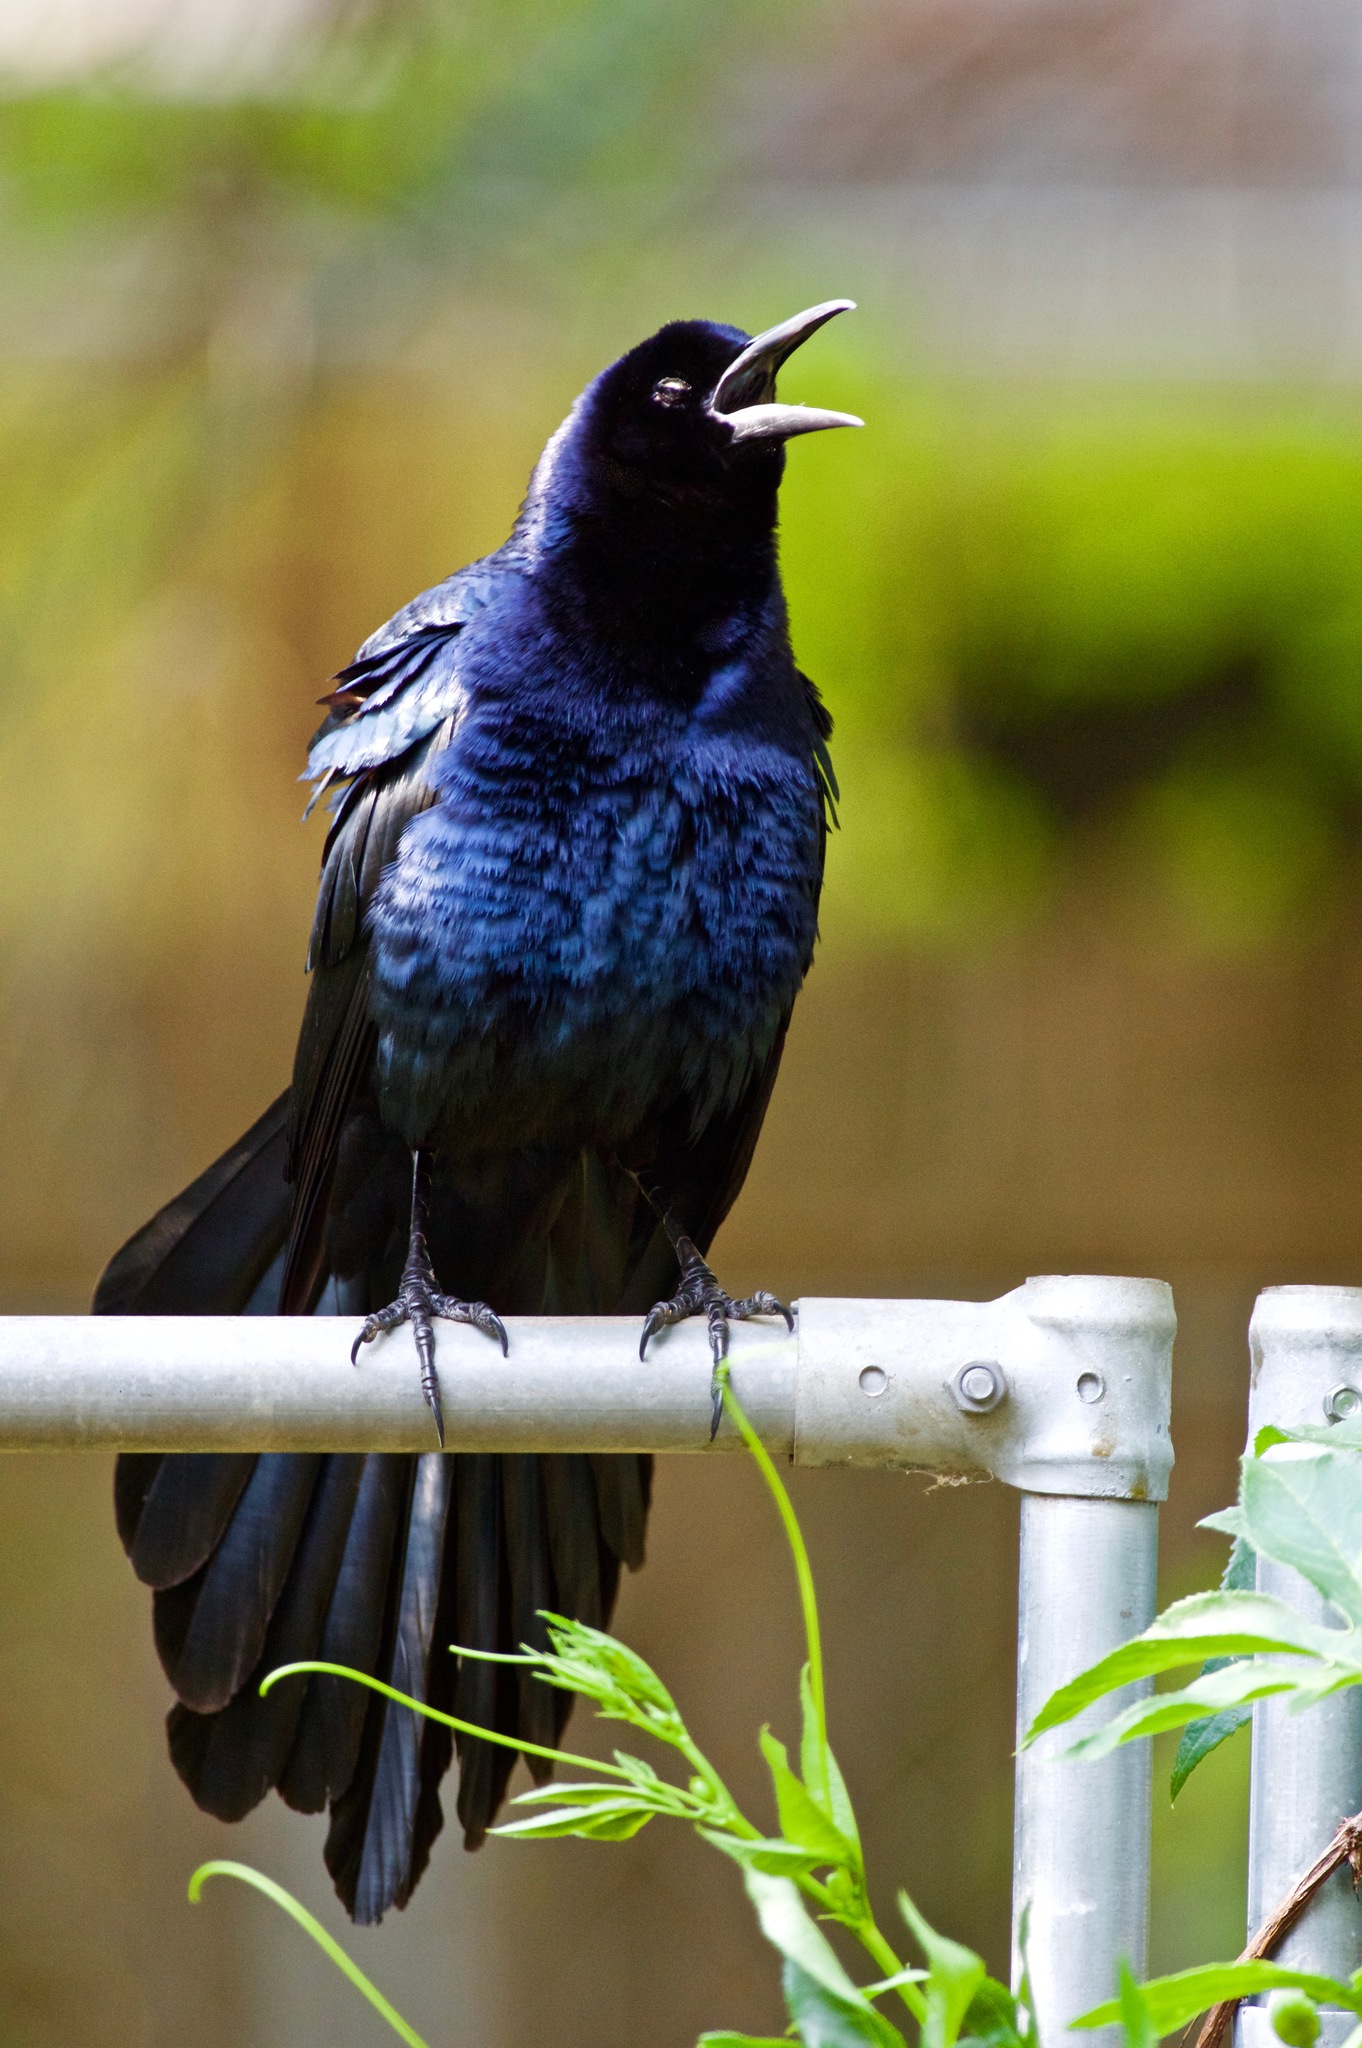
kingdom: Animalia
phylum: Chordata
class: Aves
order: Passeriformes
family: Icteridae
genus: Quiscalus
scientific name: Quiscalus mexicanus
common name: Great-tailed grackle
